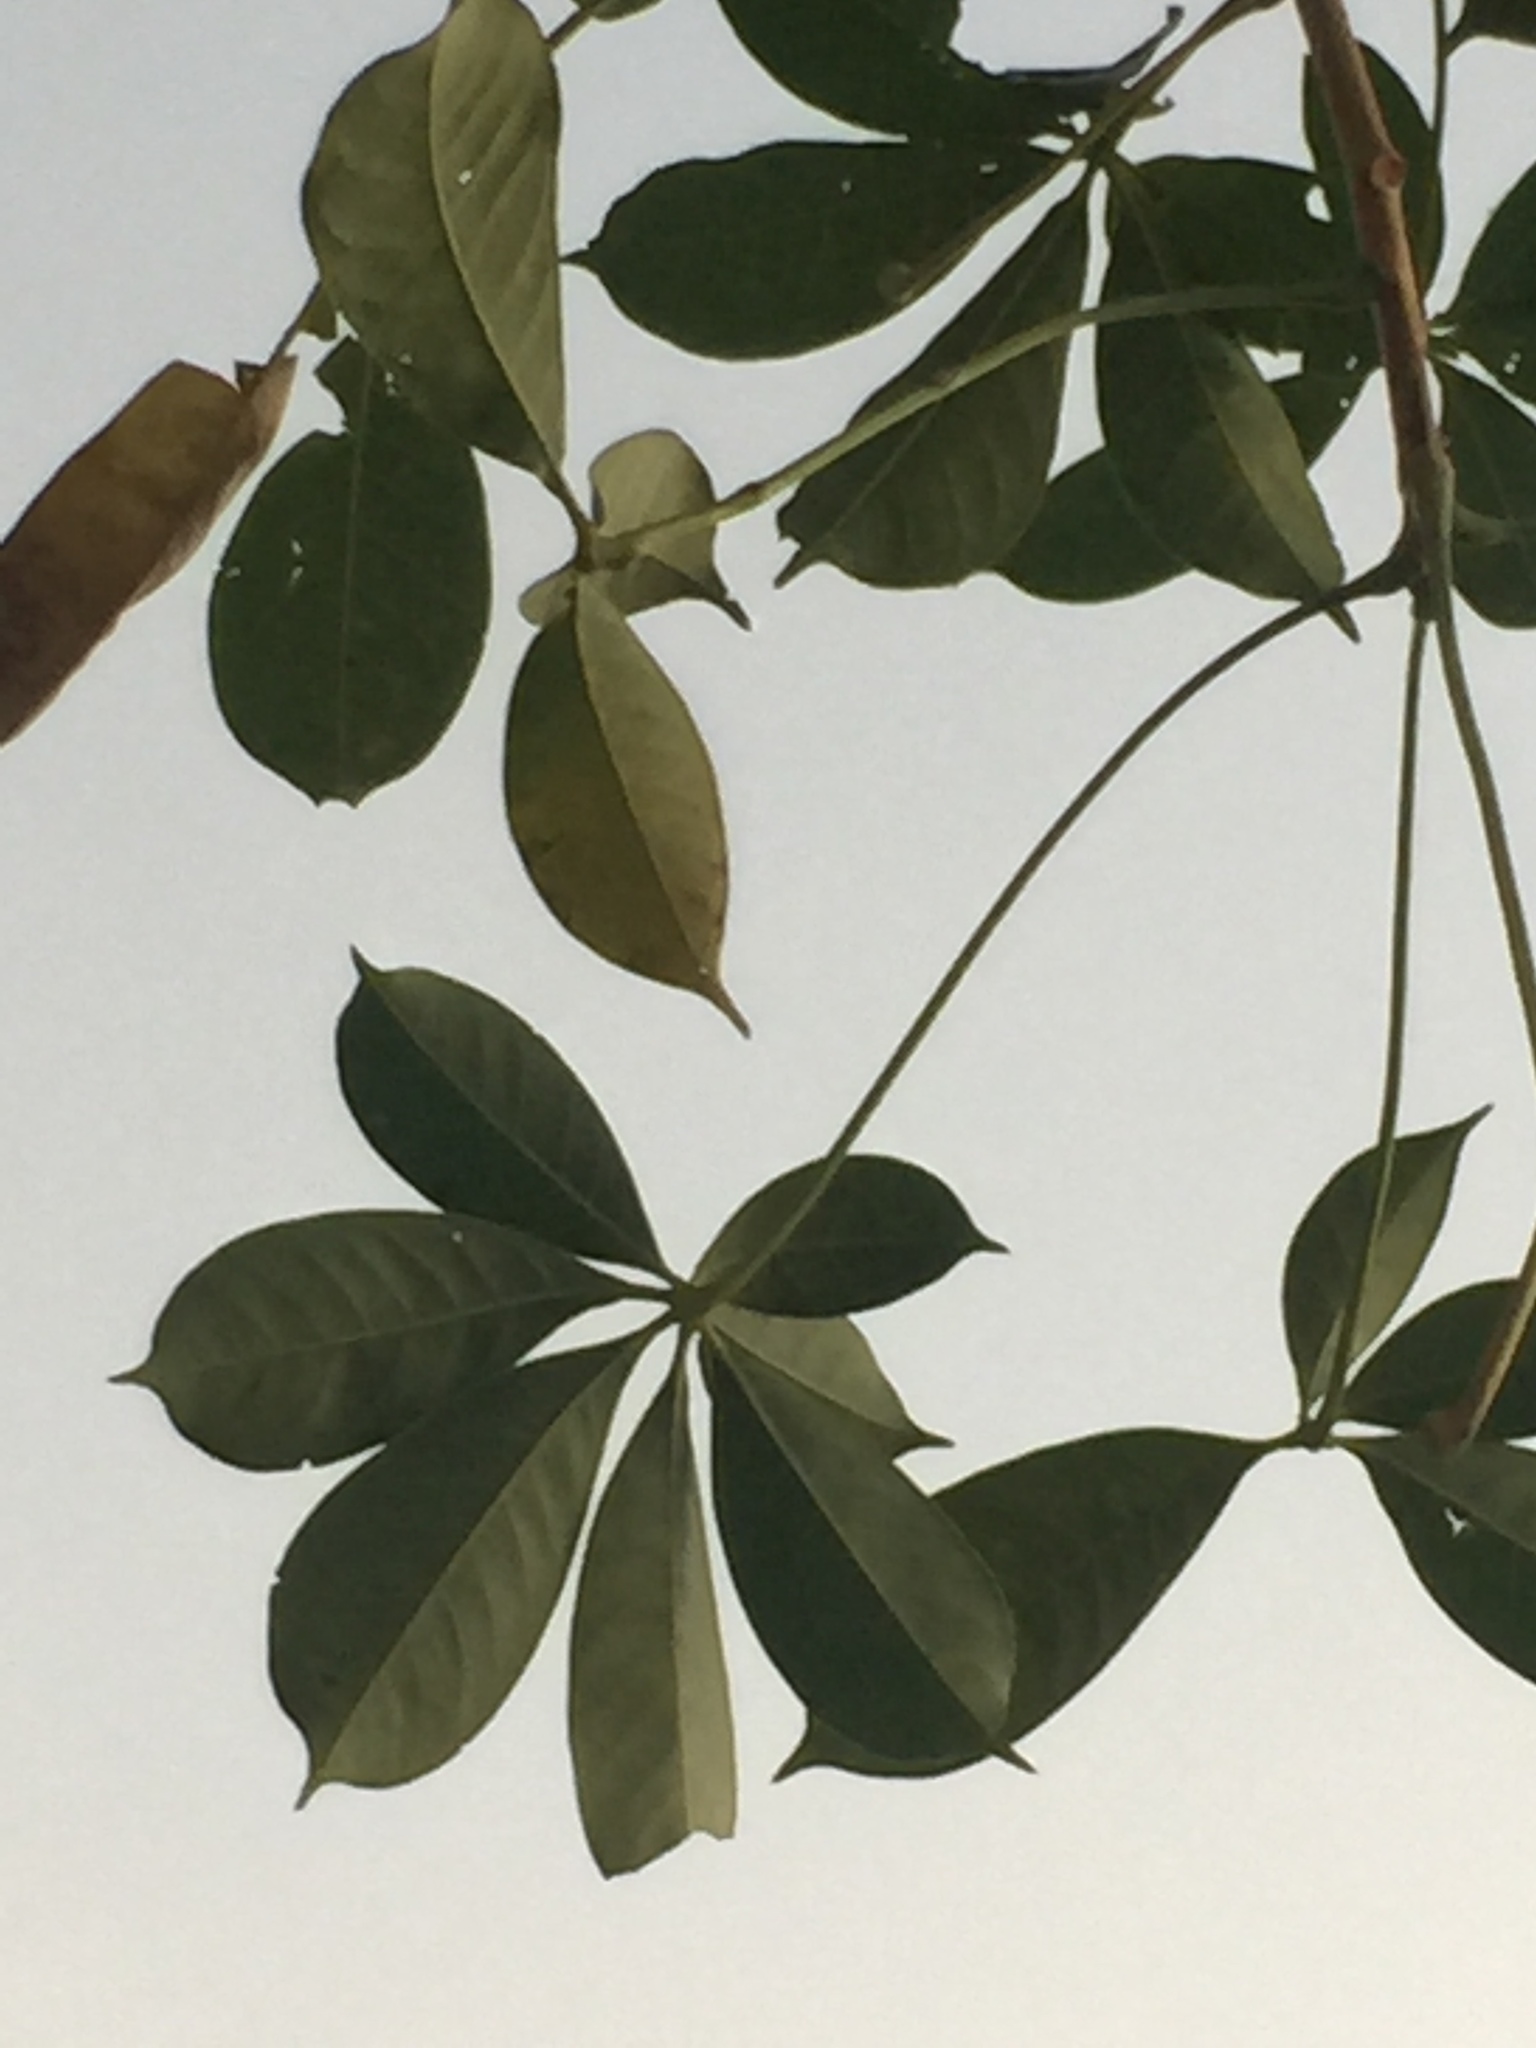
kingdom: Plantae
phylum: Tracheophyta
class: Magnoliopsida
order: Malvales
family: Malvaceae
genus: Bombax
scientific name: Bombax costatum
